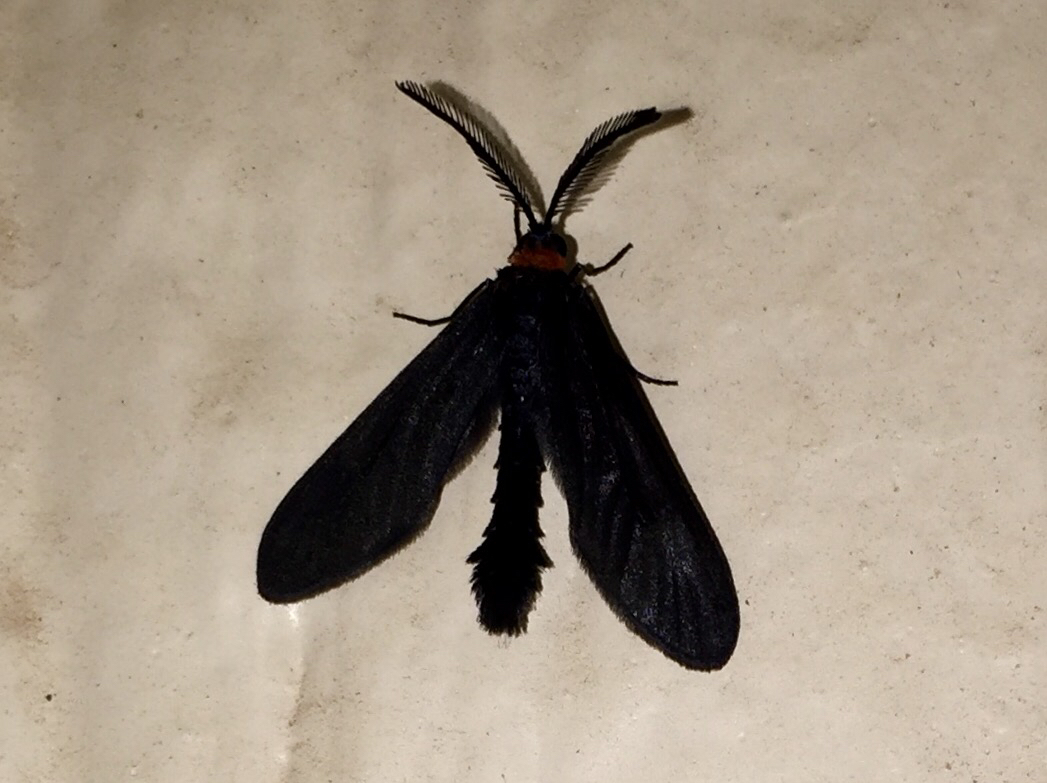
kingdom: Animalia
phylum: Arthropoda
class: Insecta
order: Lepidoptera
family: Zygaenidae
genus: Harrisina
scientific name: Harrisina americana
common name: Grapeleaf skeletonizer moth
